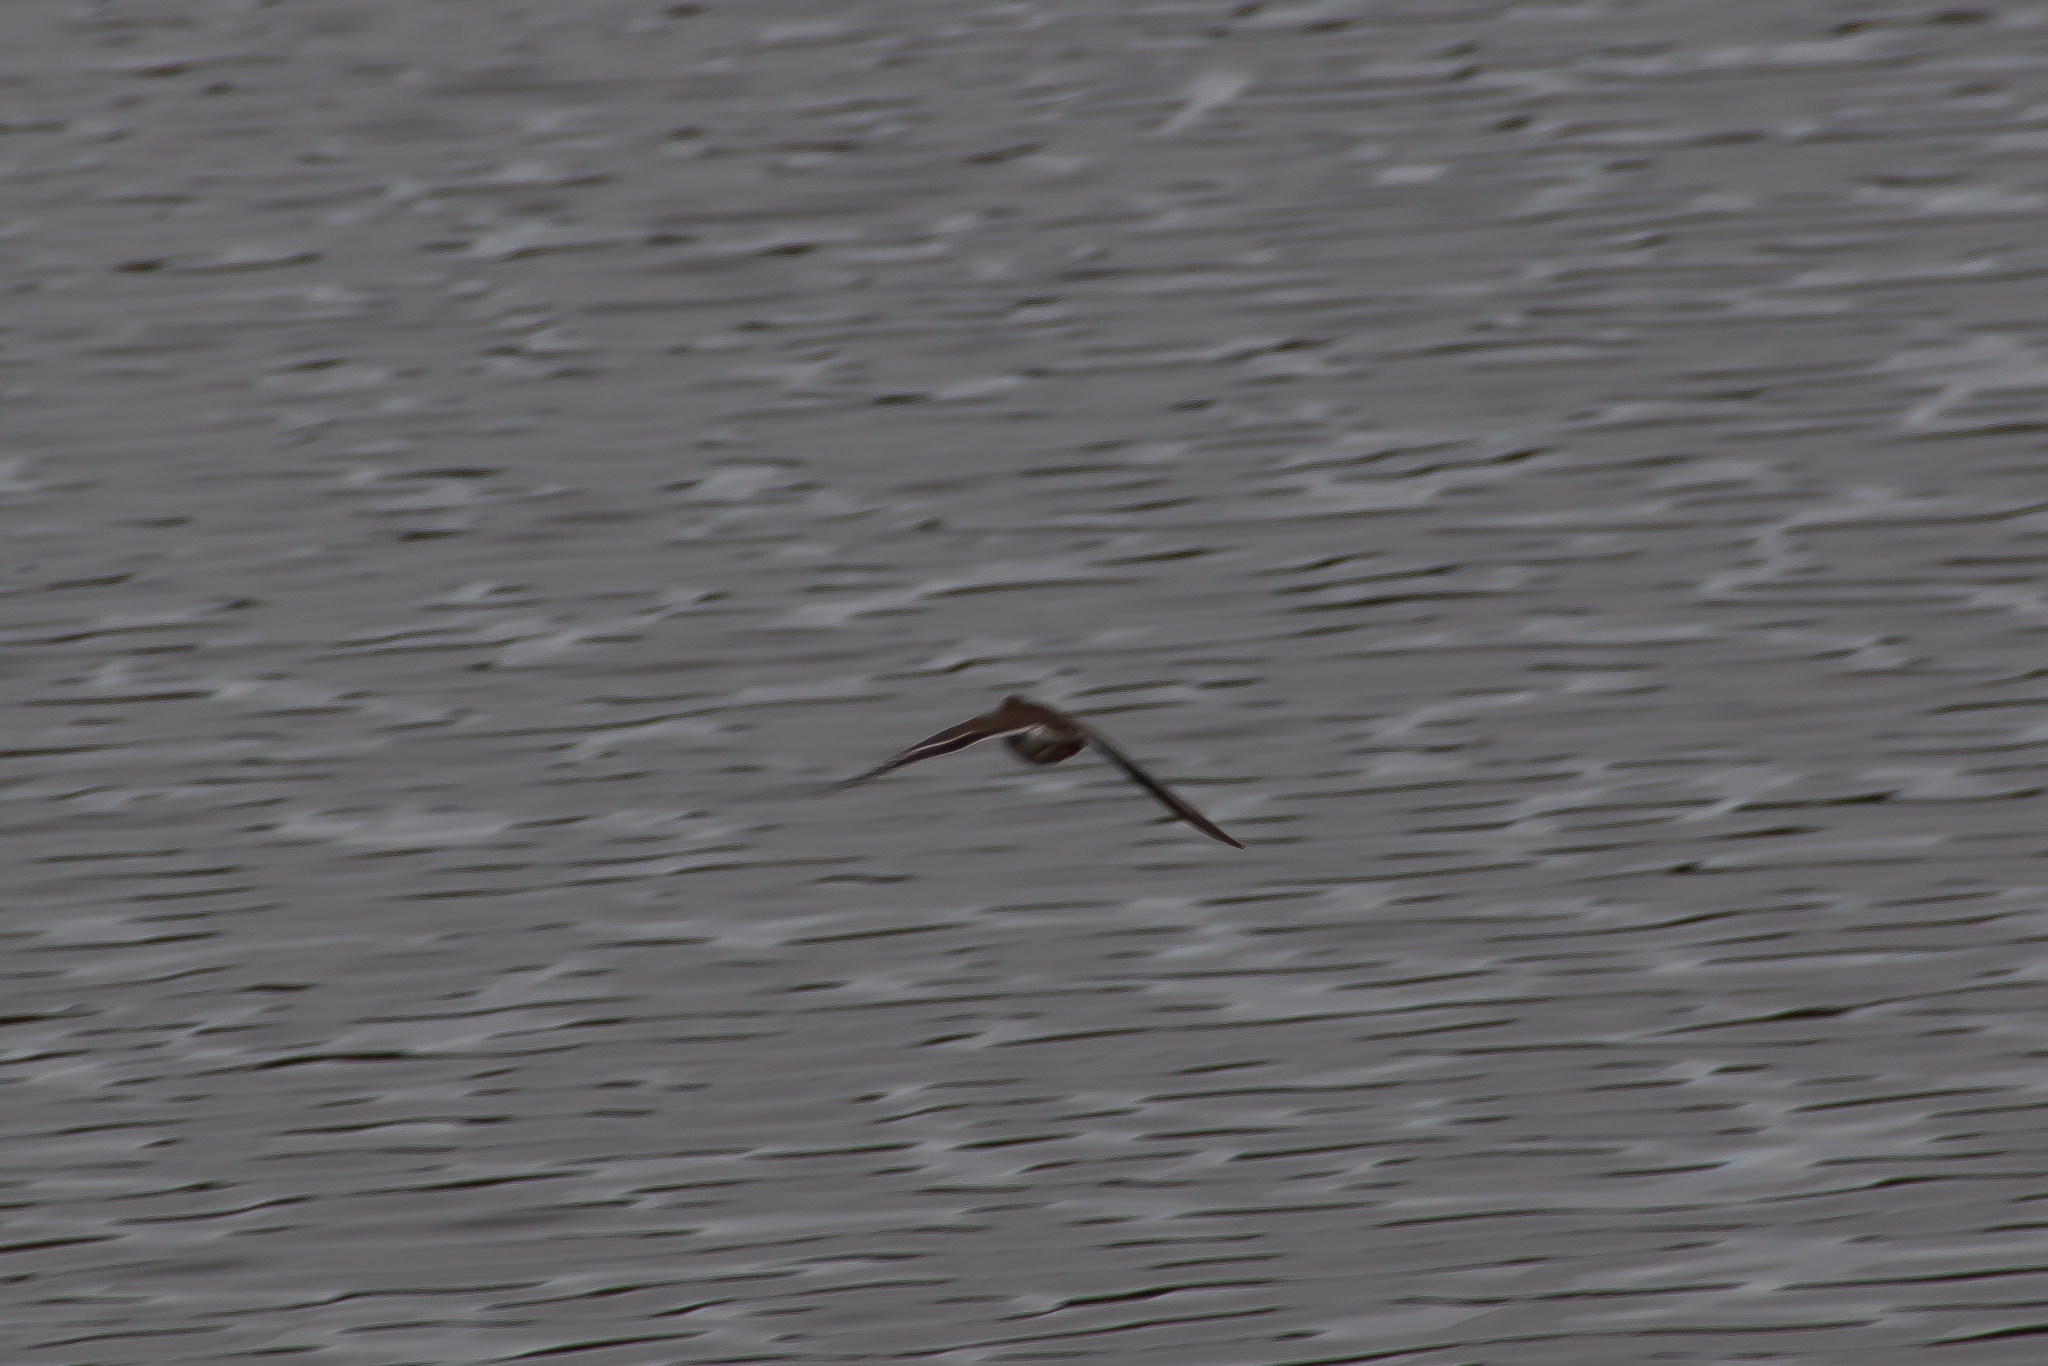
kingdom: Animalia
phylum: Chordata
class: Aves
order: Charadriiformes
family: Scolopacidae
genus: Actitis
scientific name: Actitis macularius
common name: Spotted sandpiper
